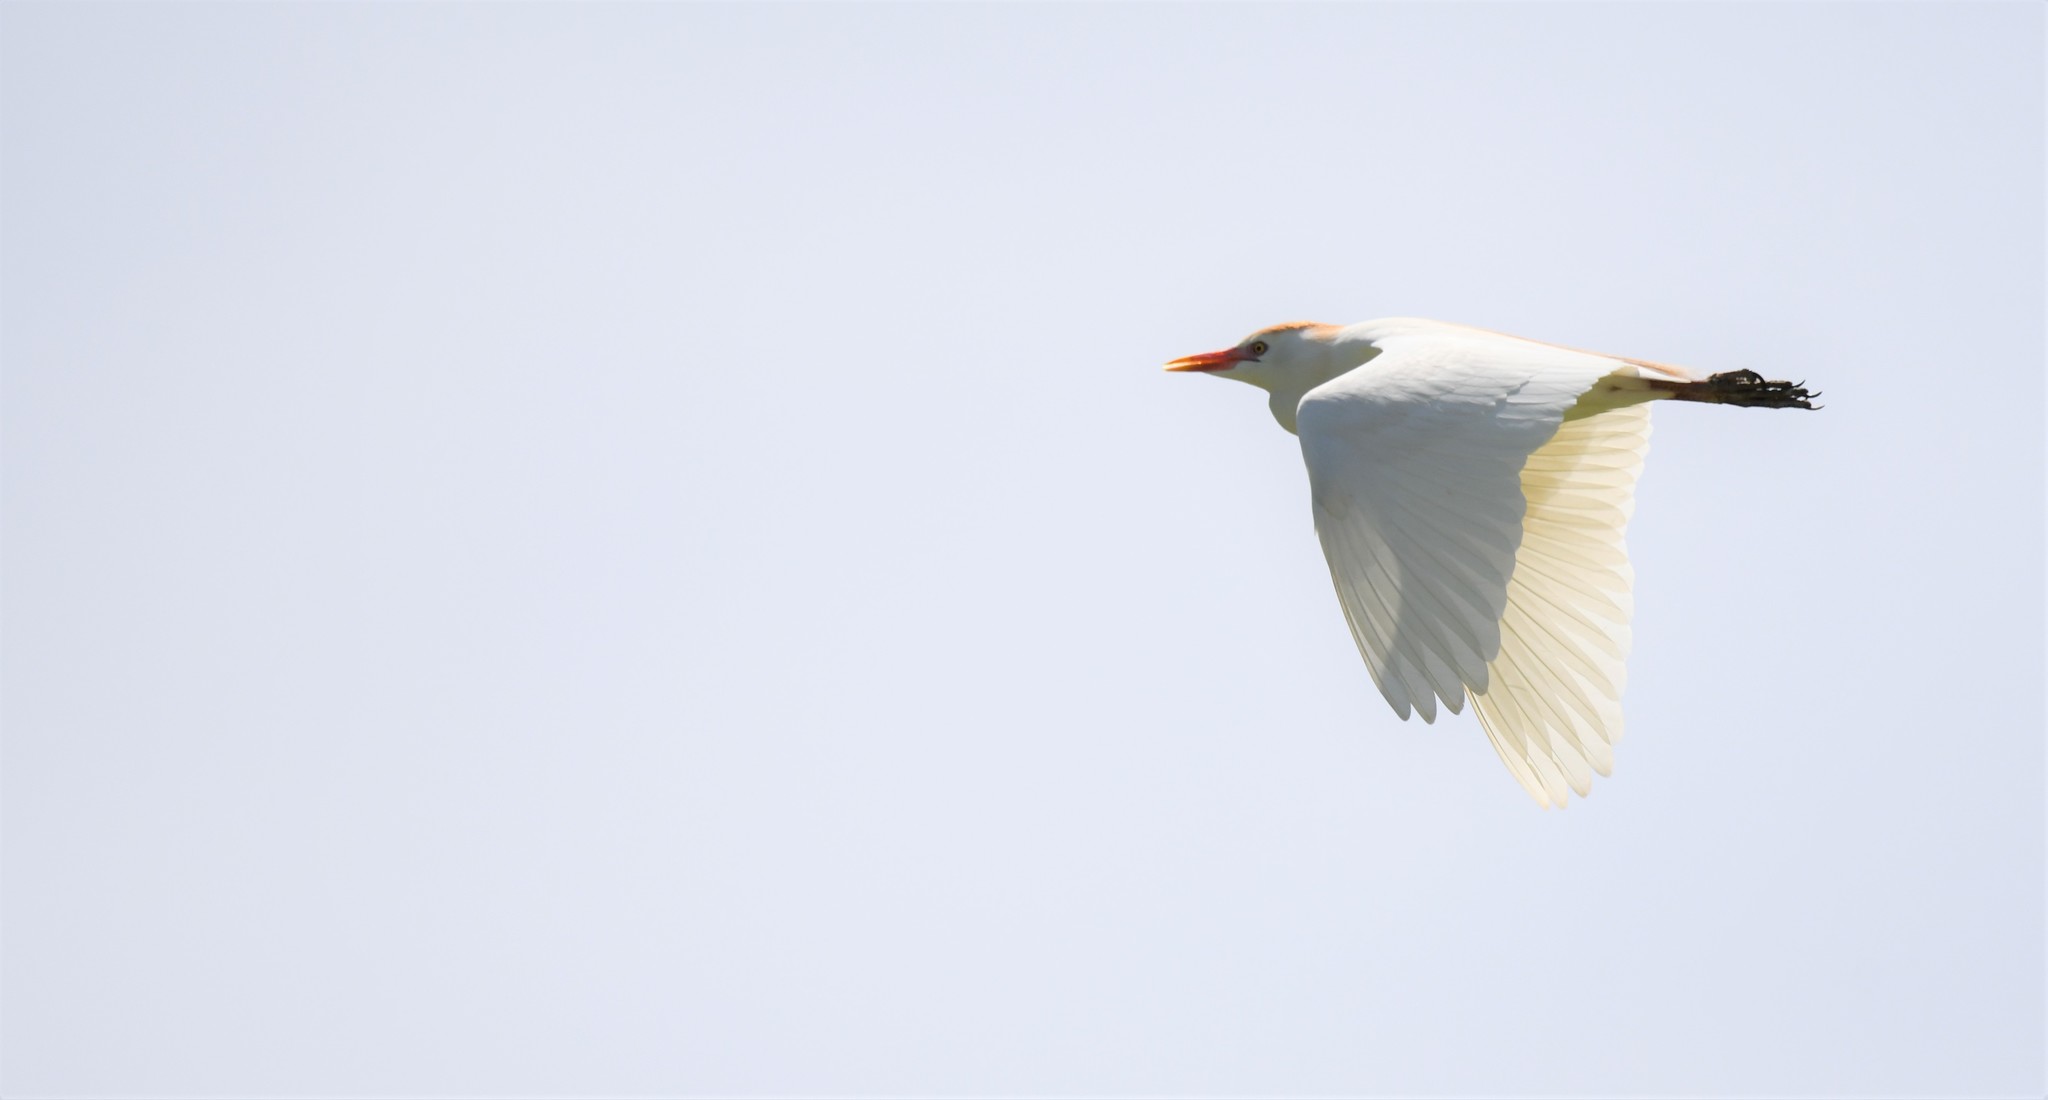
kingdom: Animalia
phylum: Chordata
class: Aves
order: Pelecaniformes
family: Ardeidae
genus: Bubulcus
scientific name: Bubulcus ibis
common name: Cattle egret
